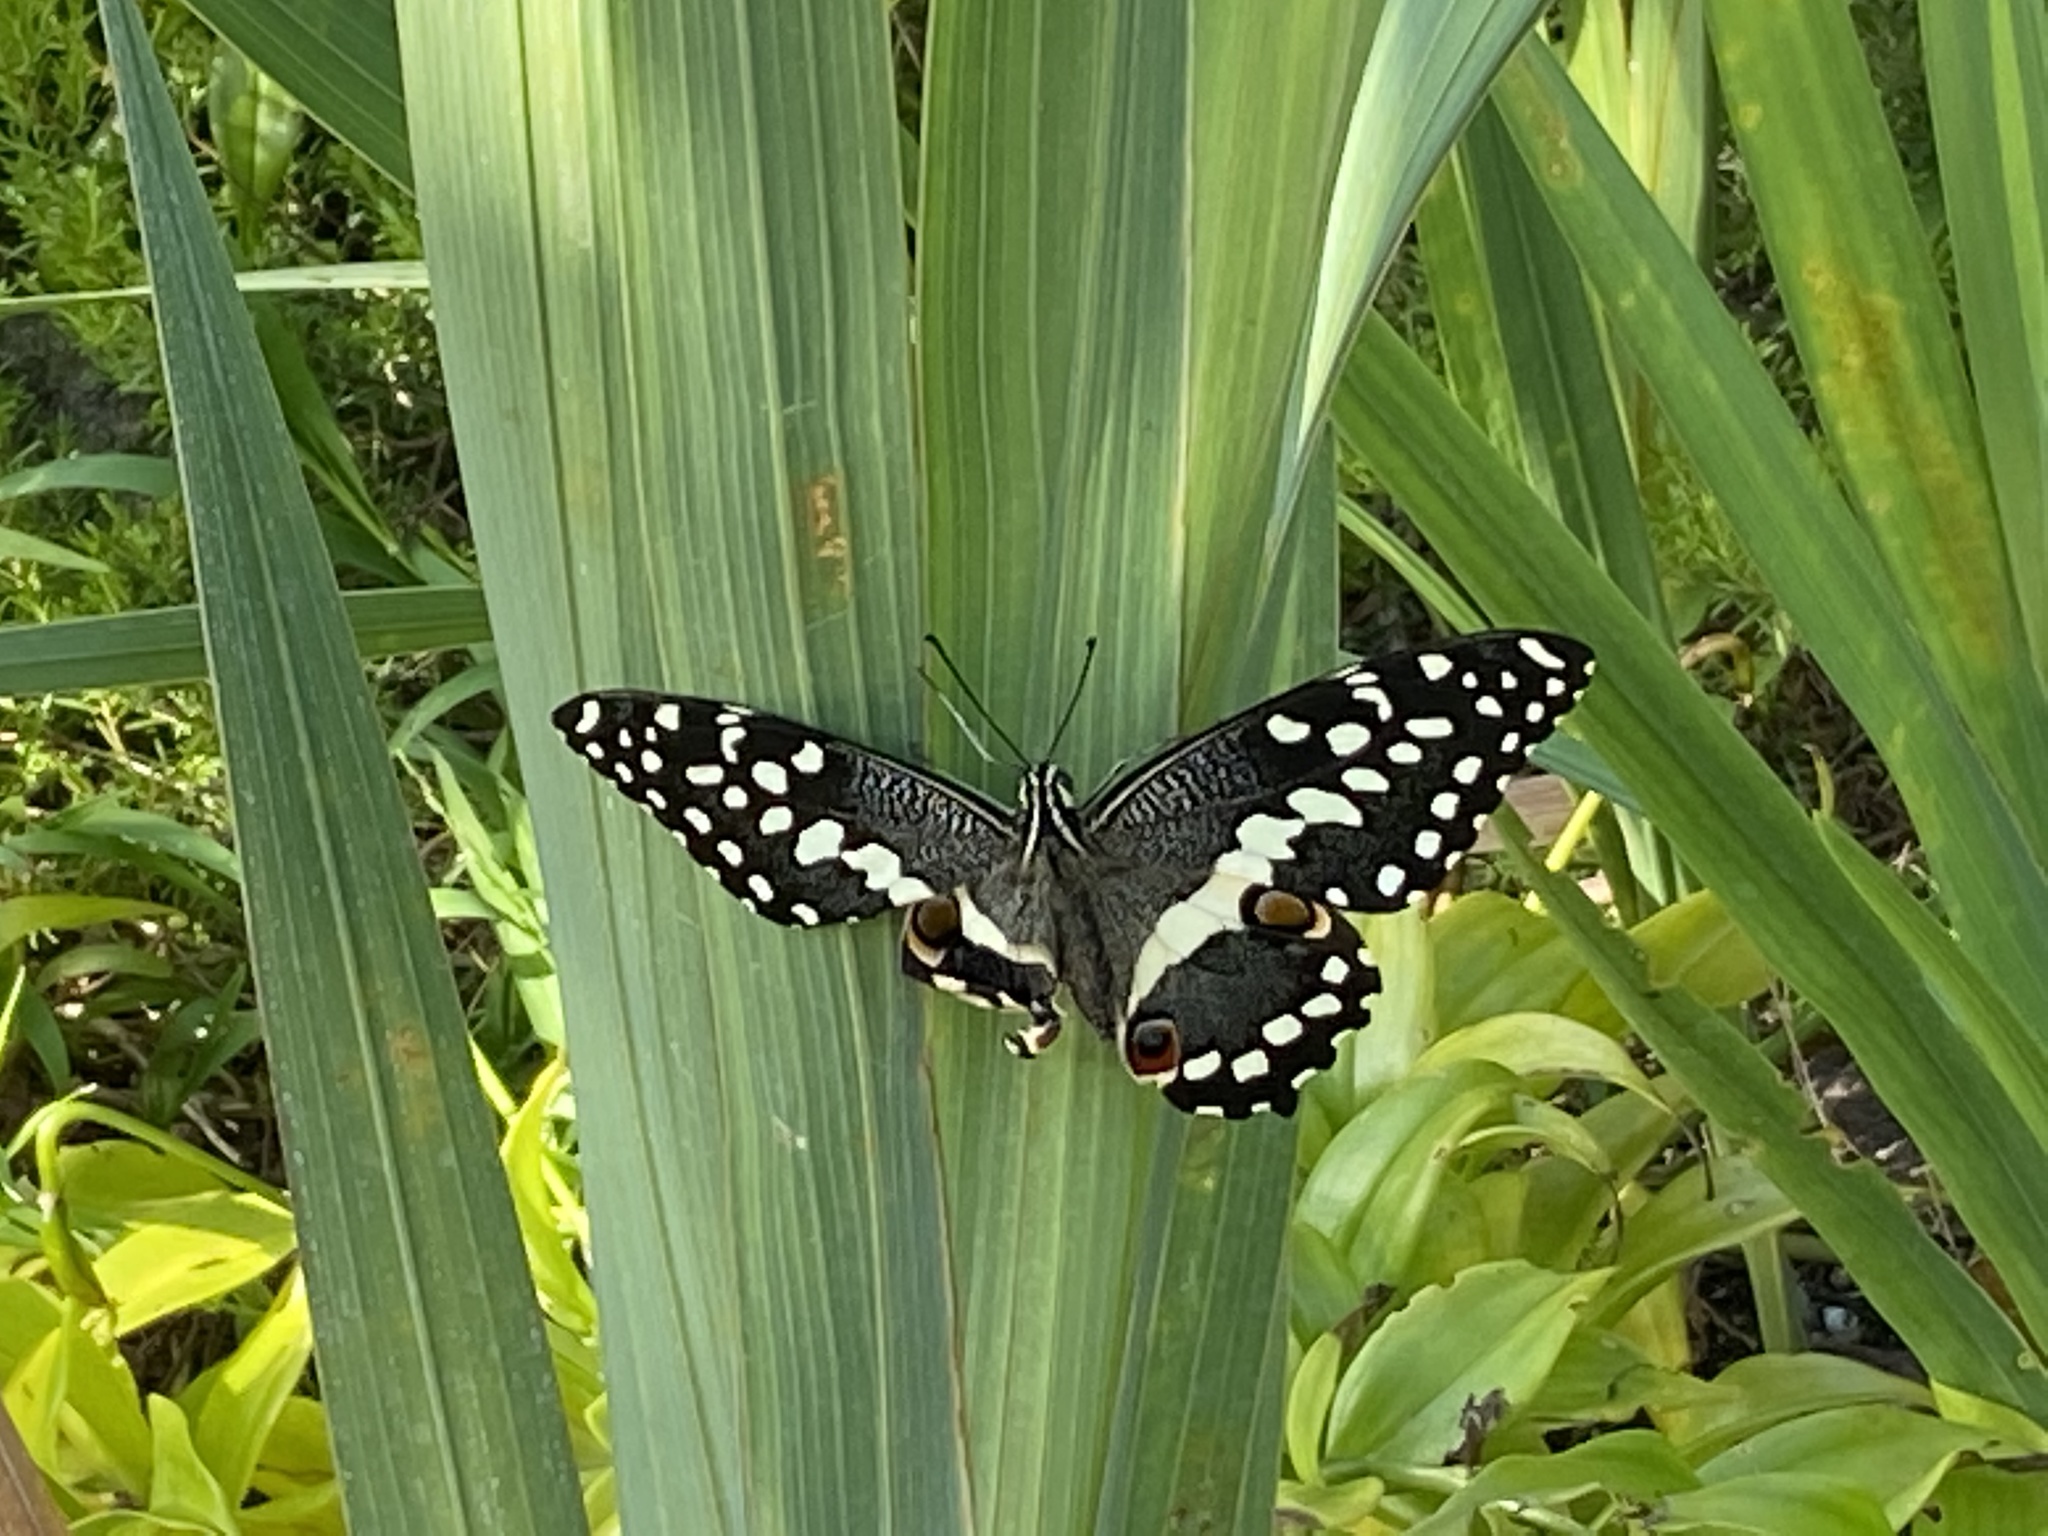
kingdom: Animalia
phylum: Arthropoda
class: Insecta
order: Lepidoptera
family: Papilionidae
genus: Papilio
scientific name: Papilio demodocus
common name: Christmas butterfly
